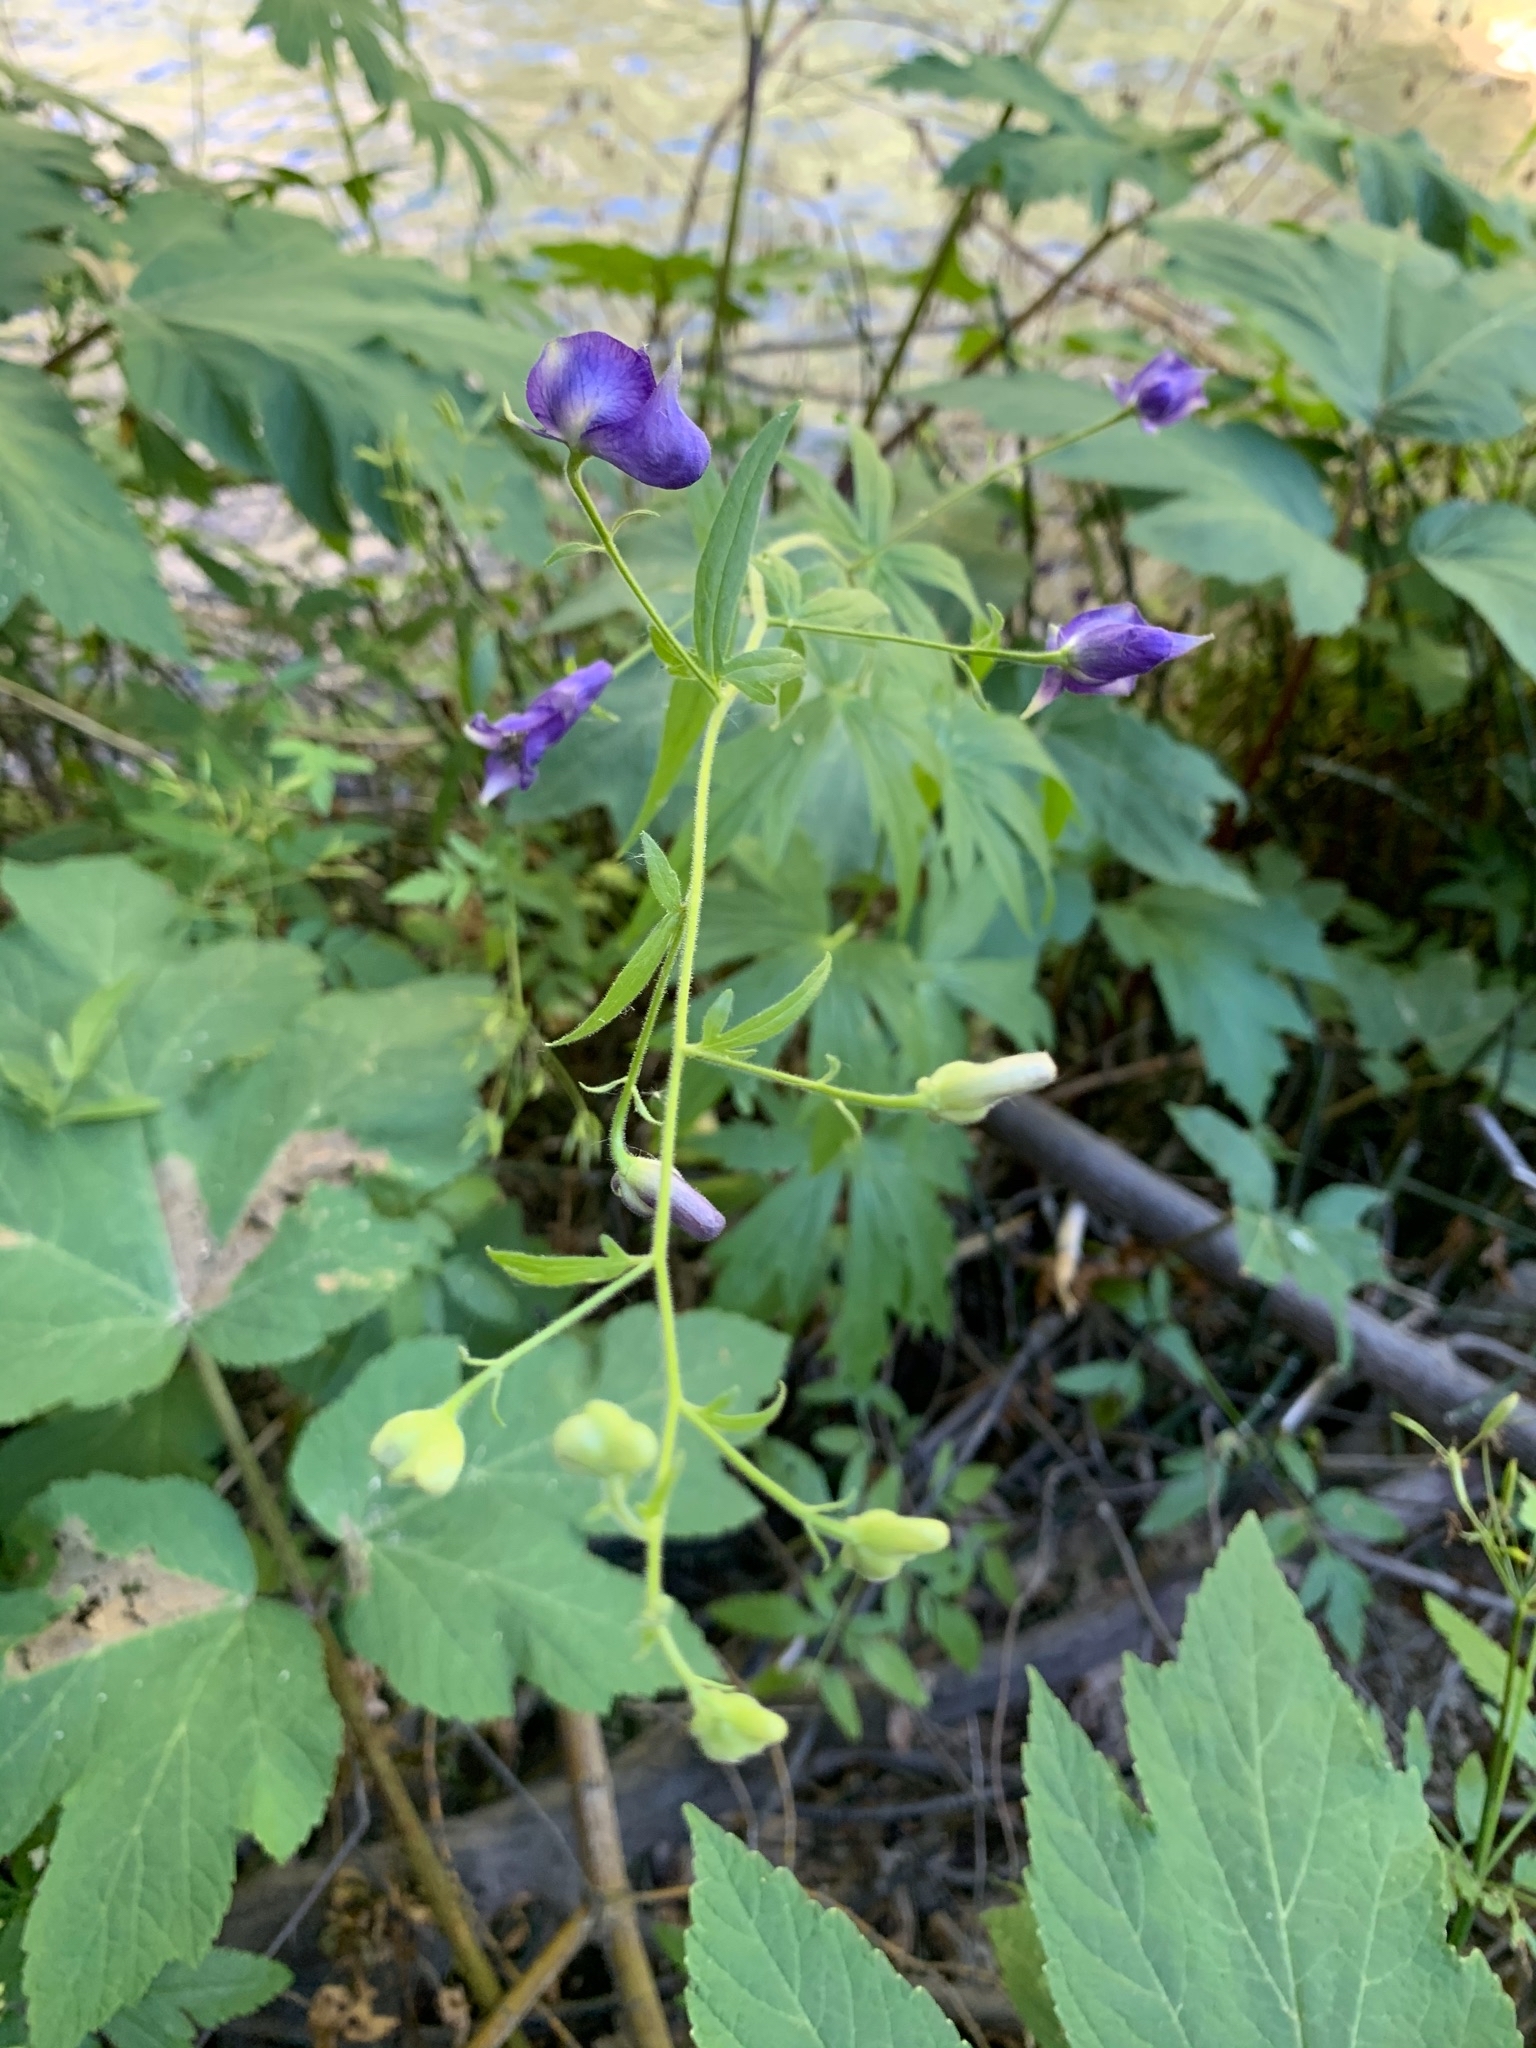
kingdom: Plantae
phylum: Tracheophyta
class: Magnoliopsida
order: Ranunculales
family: Ranunculaceae
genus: Aconitum
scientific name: Aconitum columbianum
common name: Columbia aconite
